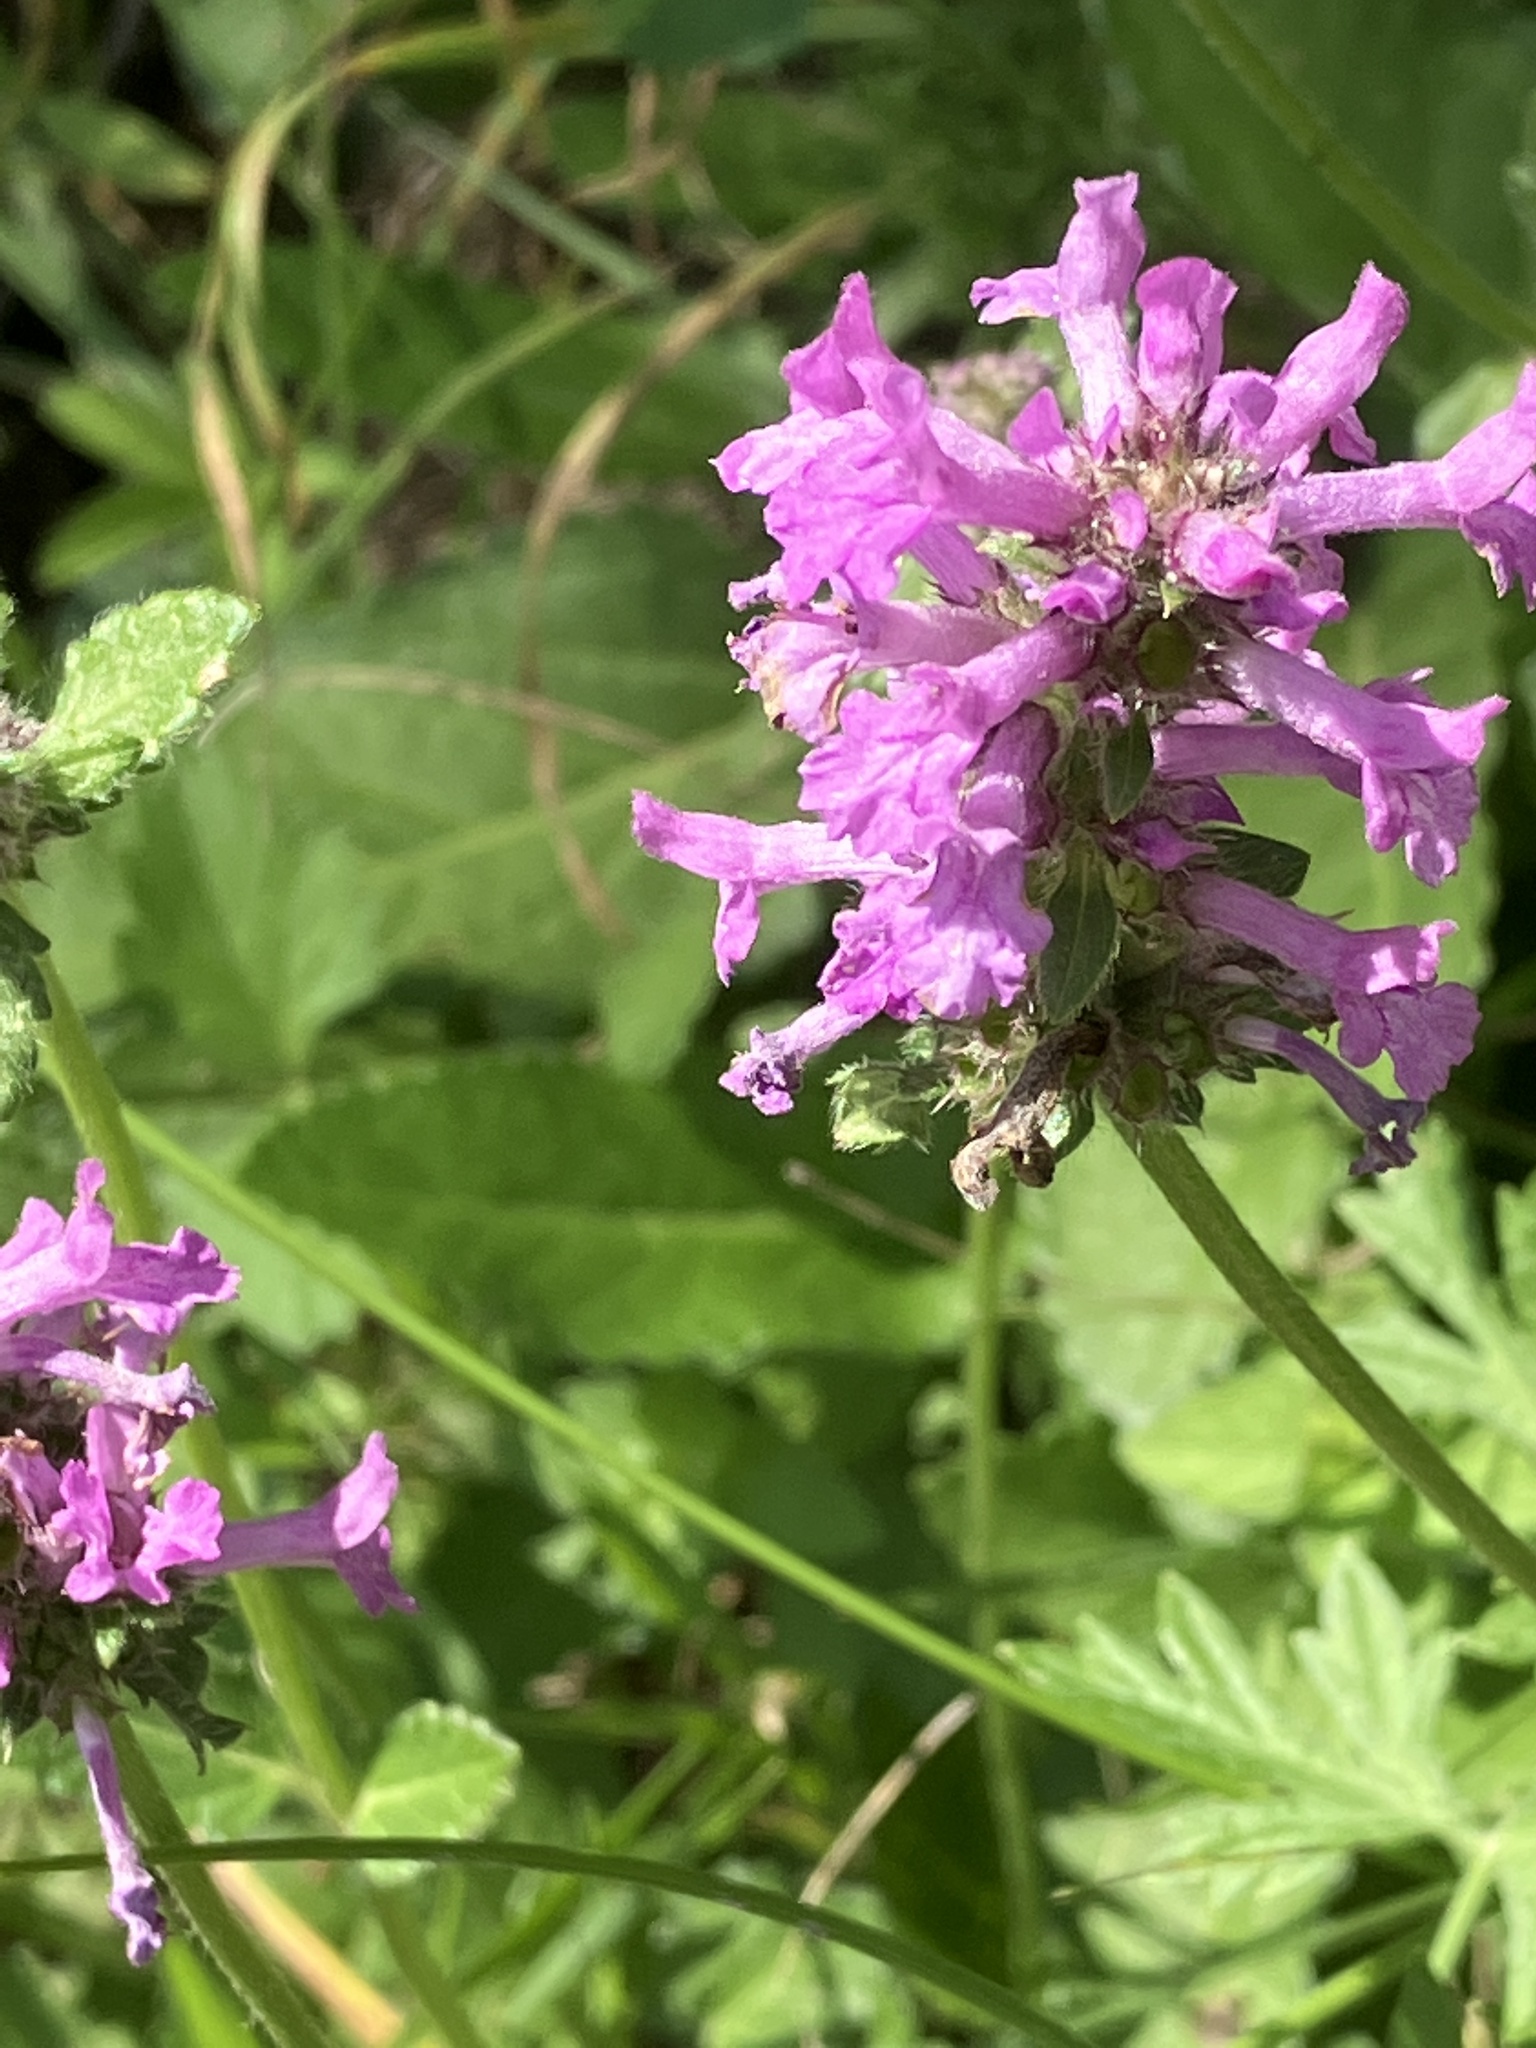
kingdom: Plantae
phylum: Tracheophyta
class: Magnoliopsida
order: Lamiales
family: Lamiaceae
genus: Betonica
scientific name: Betonica officinalis
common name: Bishop's-wort
